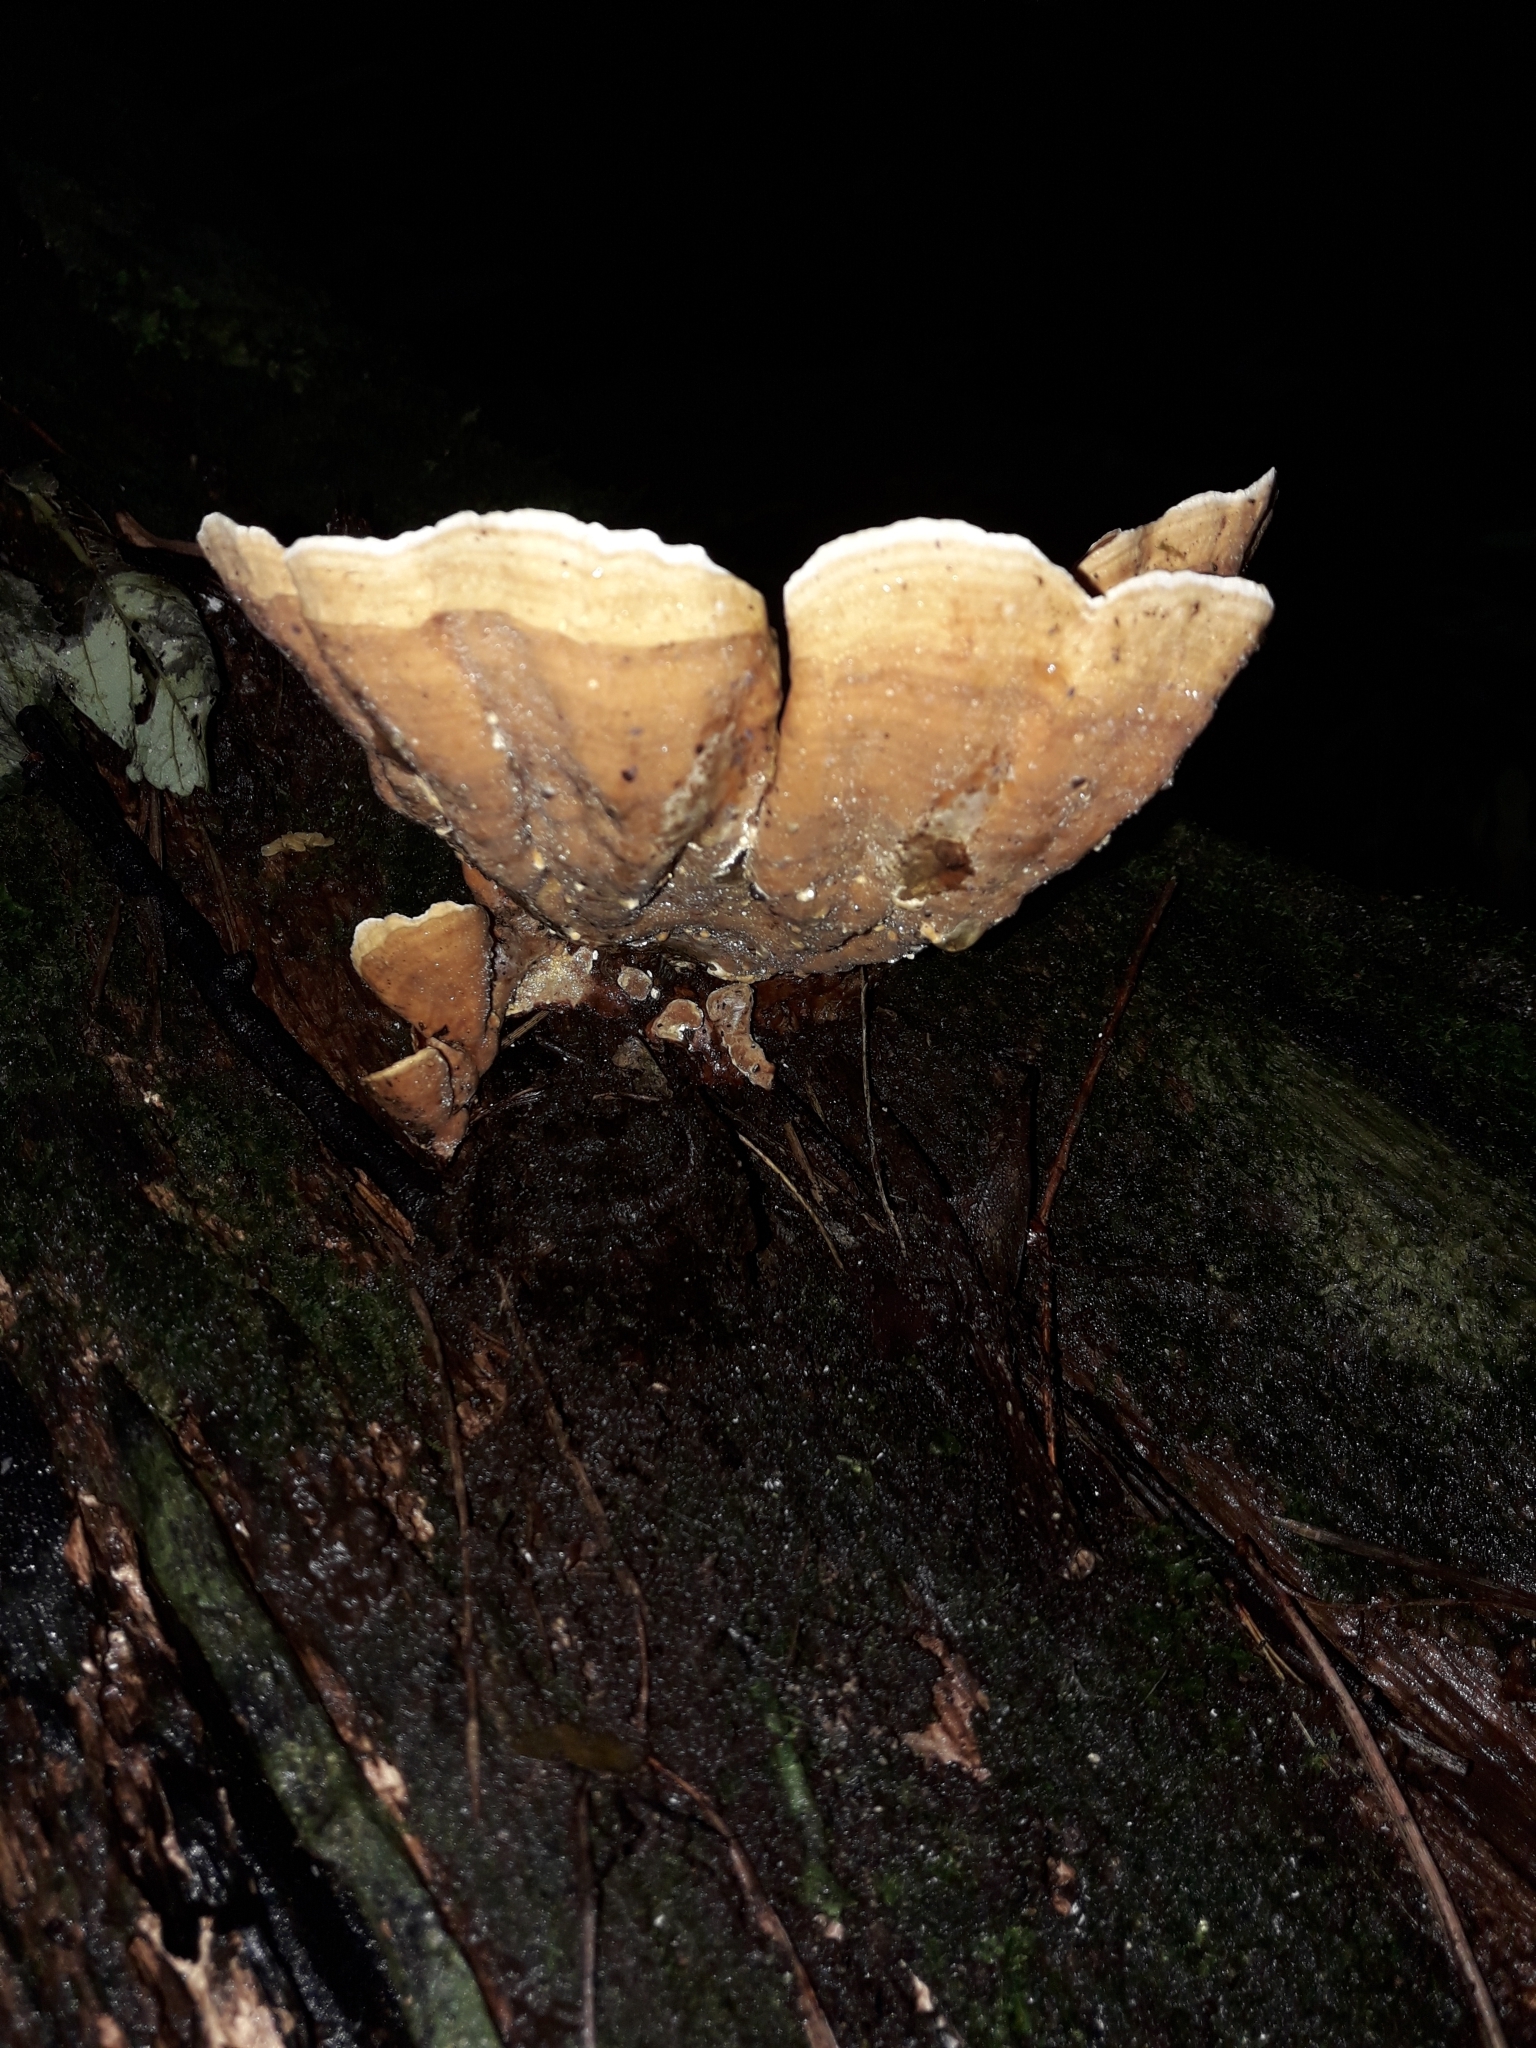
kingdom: Fungi
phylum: Basidiomycota
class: Agaricomycetes
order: Russulales
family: Stereaceae
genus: Stereum
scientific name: Stereum versicolor
